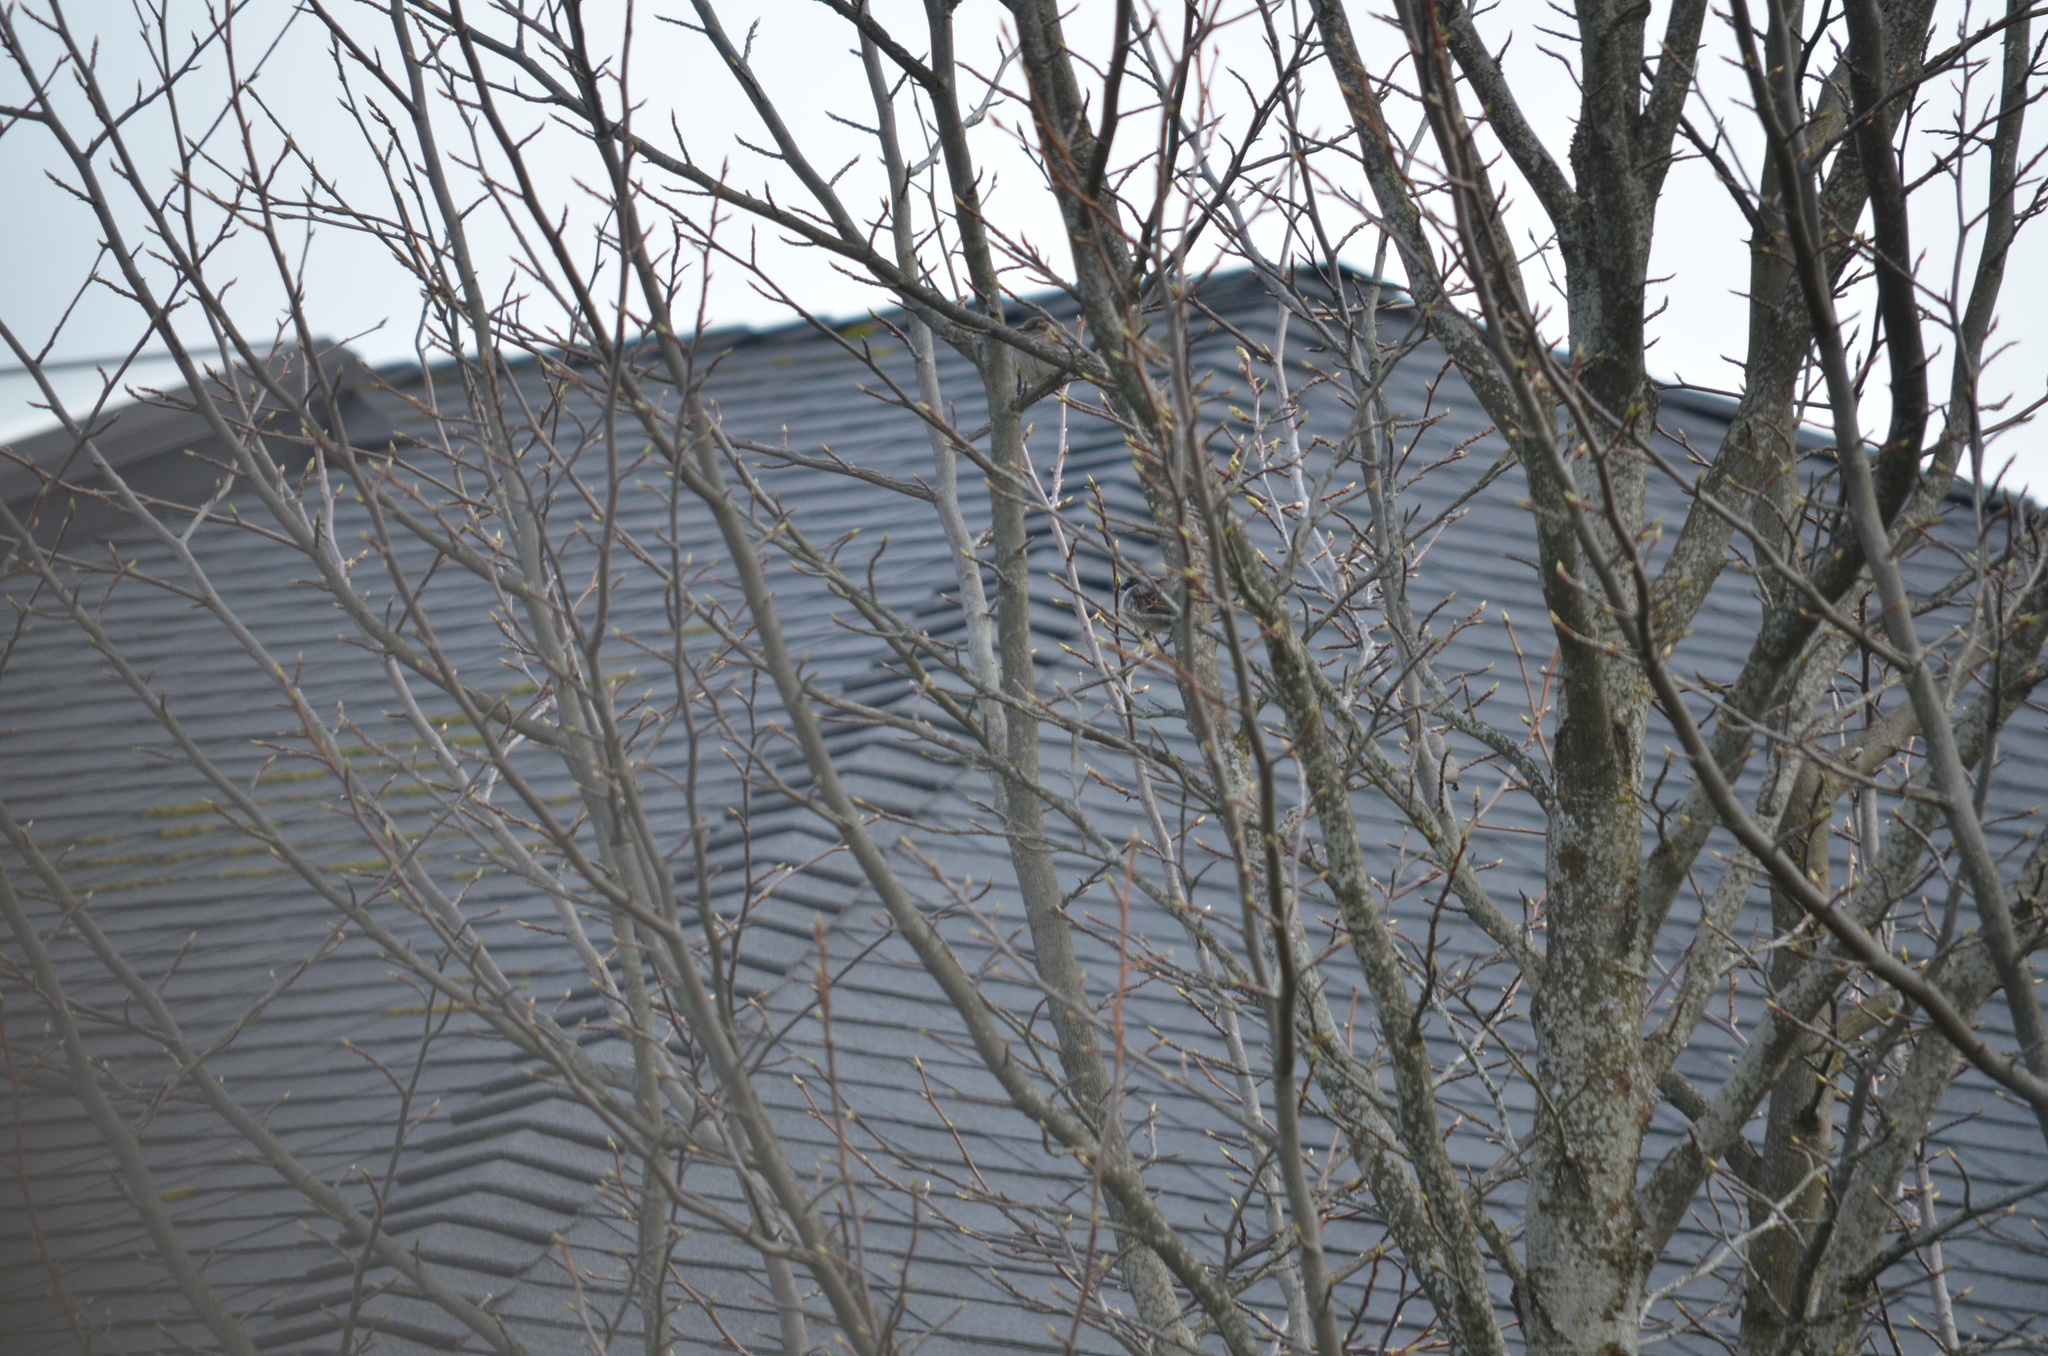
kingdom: Animalia
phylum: Chordata
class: Aves
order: Passeriformes
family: Passeridae
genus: Passer
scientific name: Passer domesticus
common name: House sparrow
